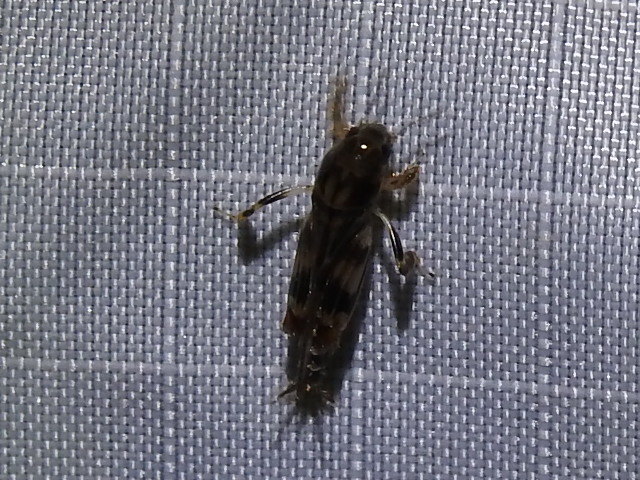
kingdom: Animalia
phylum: Arthropoda
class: Insecta
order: Orthoptera
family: Tridactylidae
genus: Neotridactylus
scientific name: Neotridactylus apicialis
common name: Larger pygmy locust
